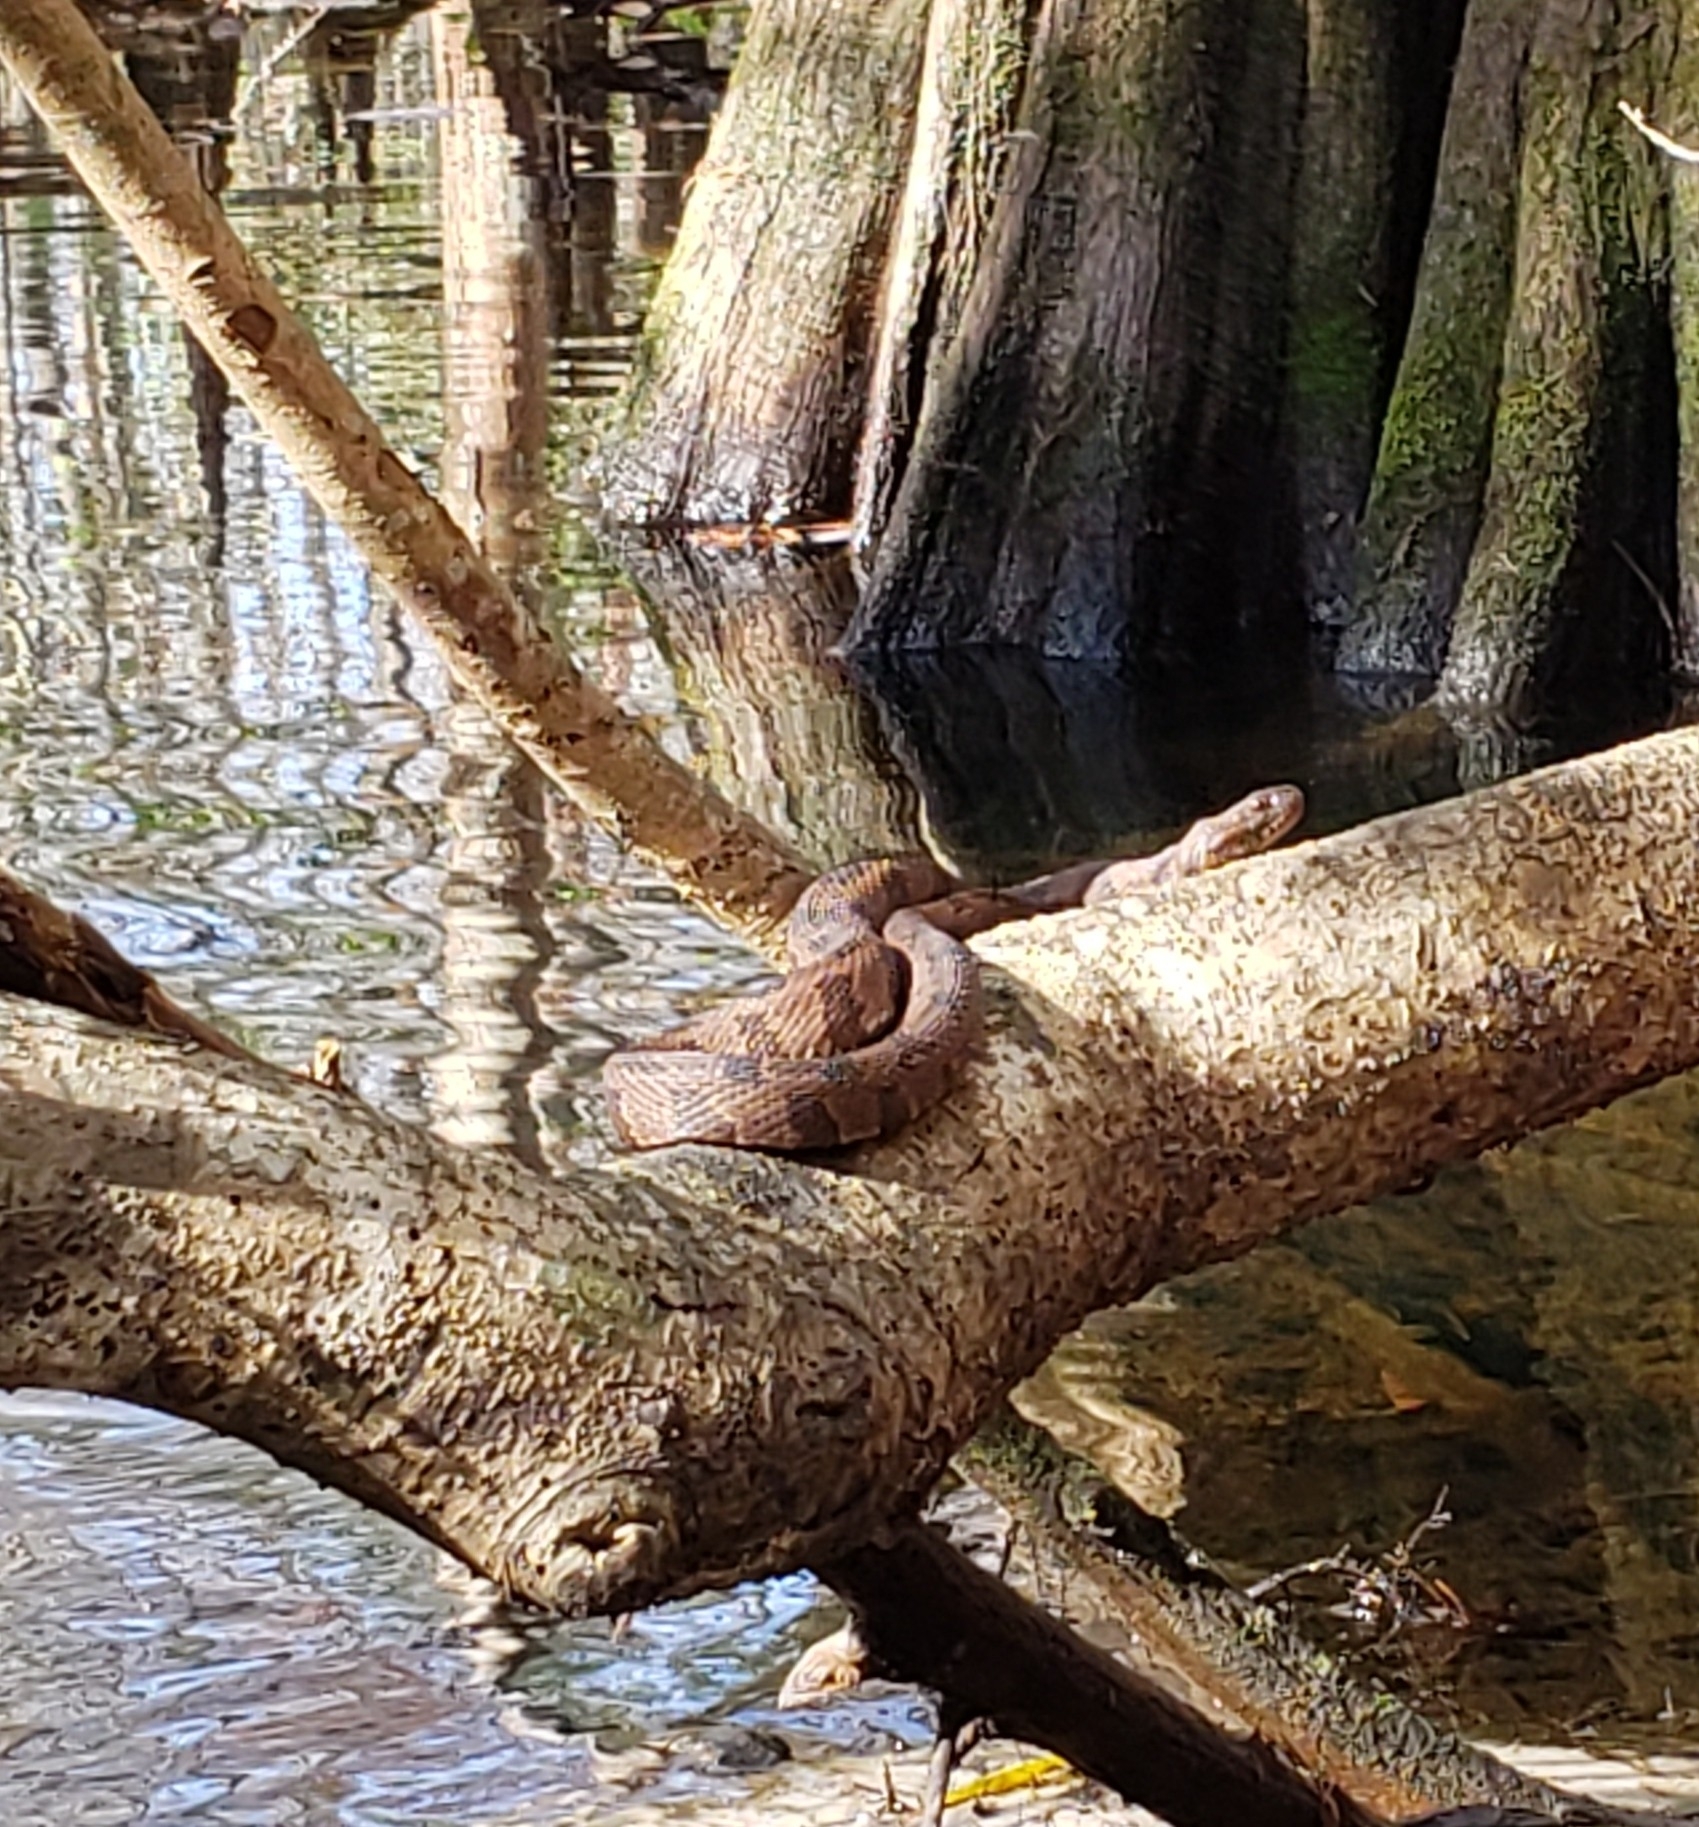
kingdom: Animalia
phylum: Chordata
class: Squamata
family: Colubridae
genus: Nerodia
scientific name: Nerodia taxispilota
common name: Brown water snake
